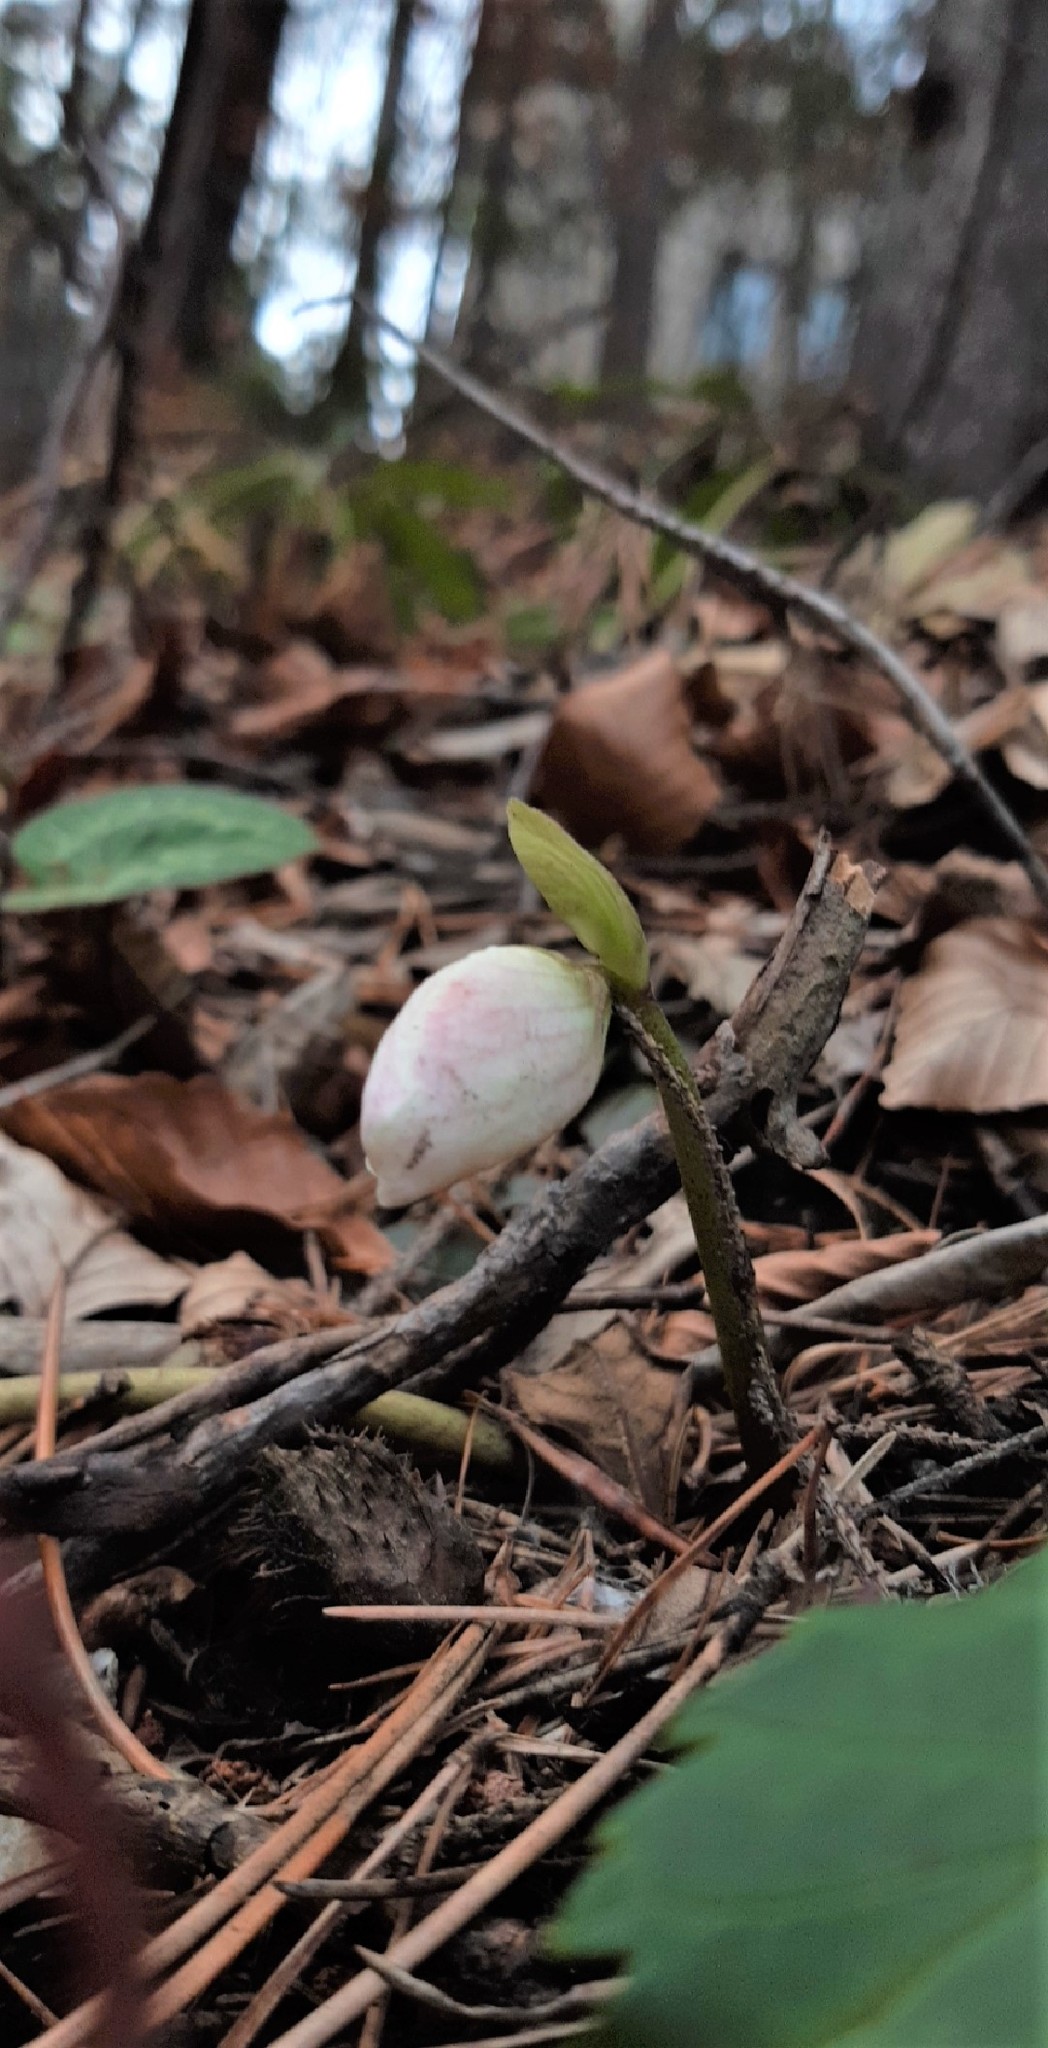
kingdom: Plantae
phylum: Tracheophyta
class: Magnoliopsida
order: Ranunculales
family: Ranunculaceae
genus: Helleborus
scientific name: Helleborus niger
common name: Black hellebore
